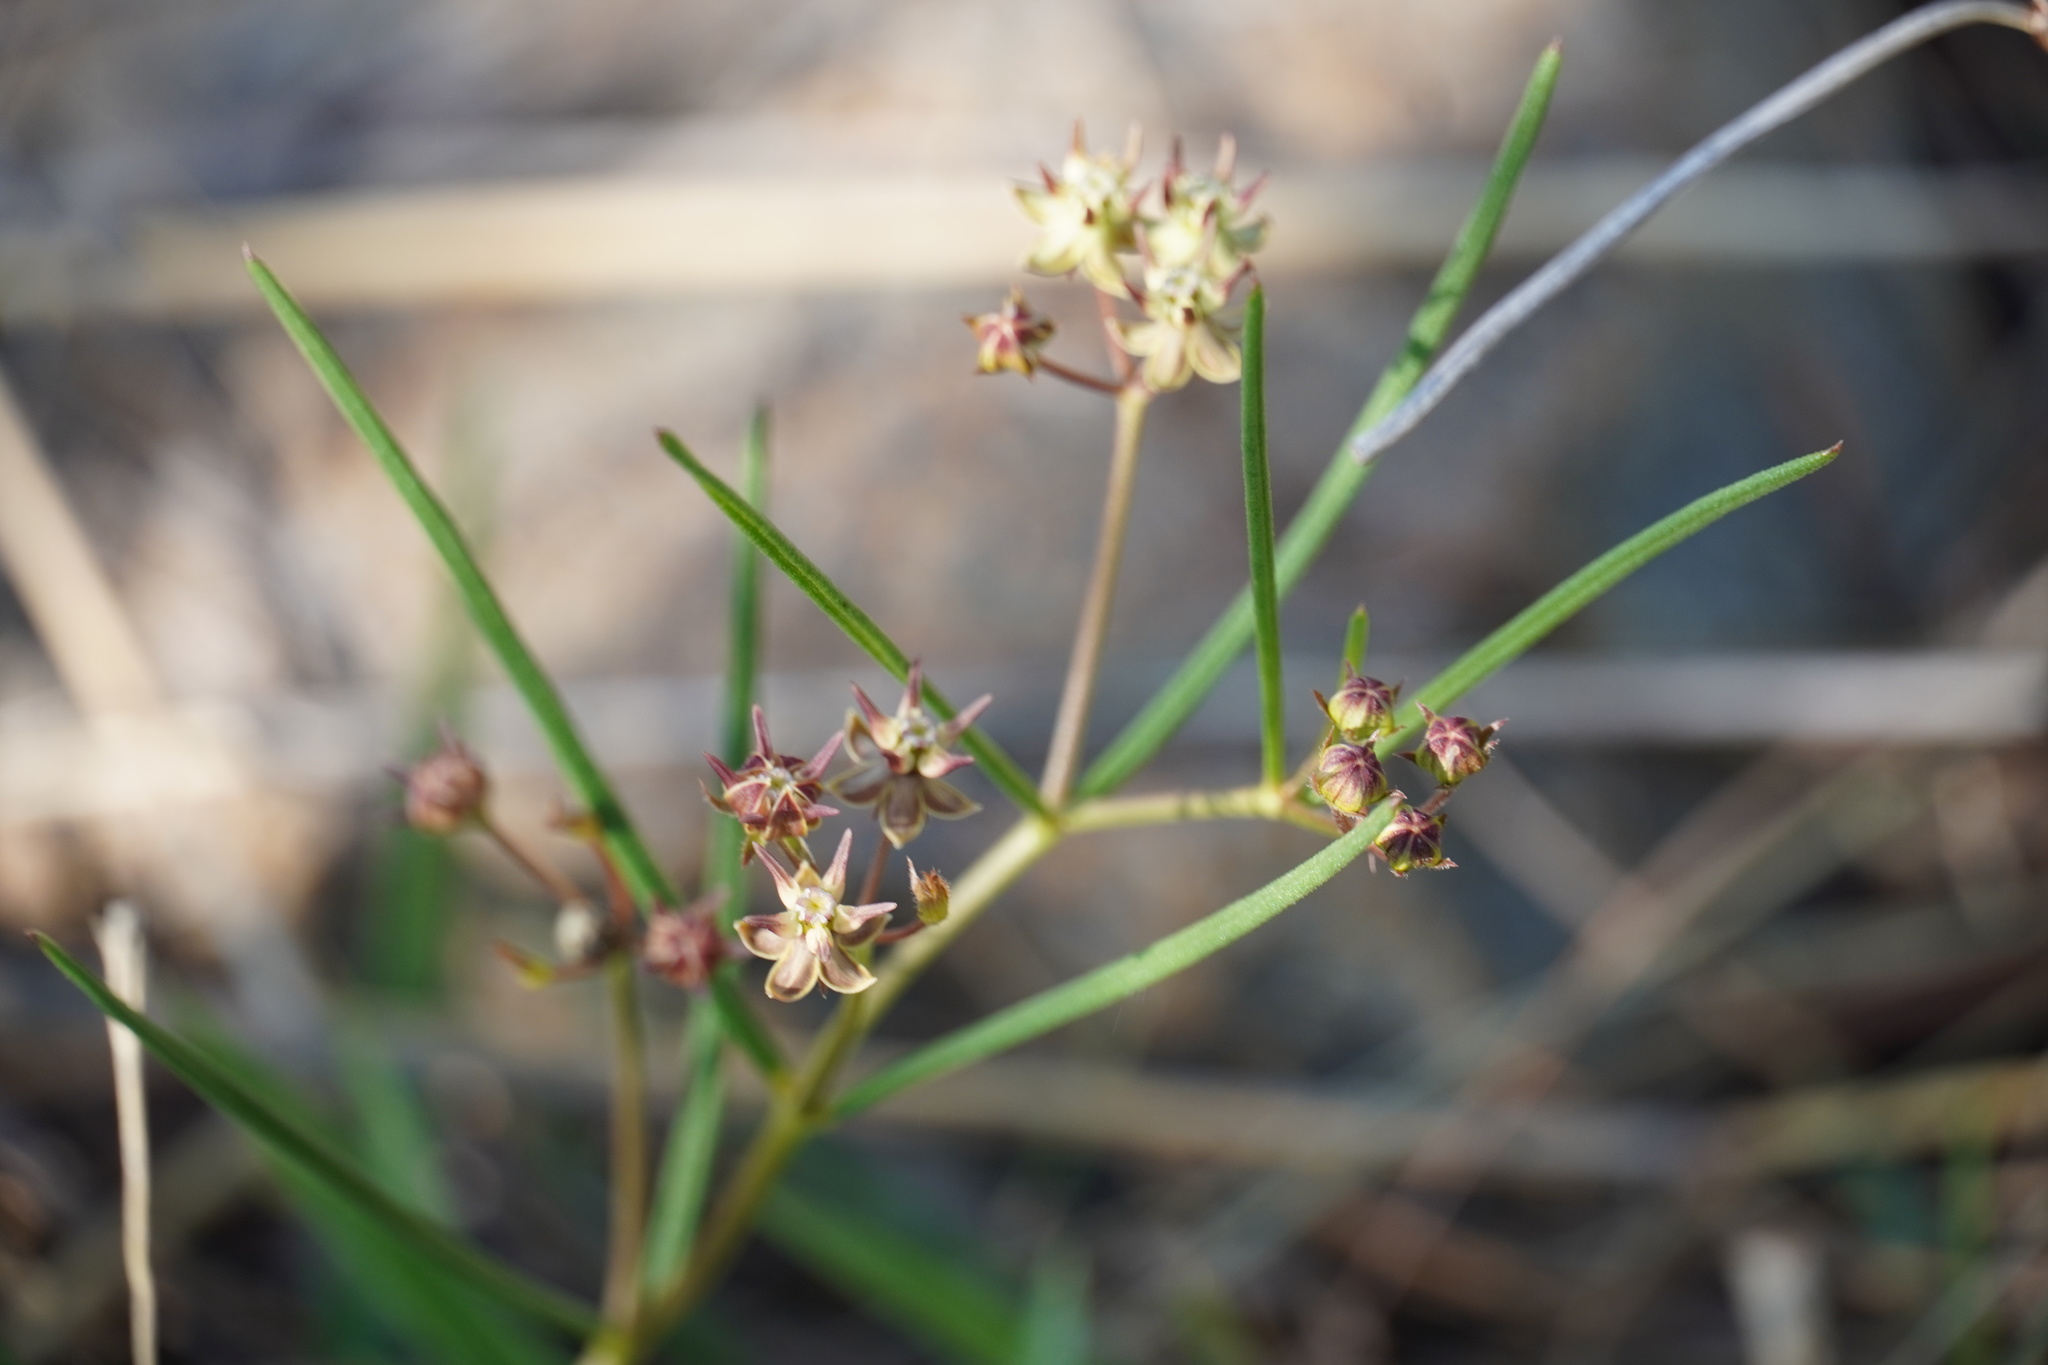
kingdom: Plantae
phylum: Tracheophyta
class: Magnoliopsida
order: Gentianales
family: Apocynaceae
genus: Asclepias
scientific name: Asclepias brevipes
